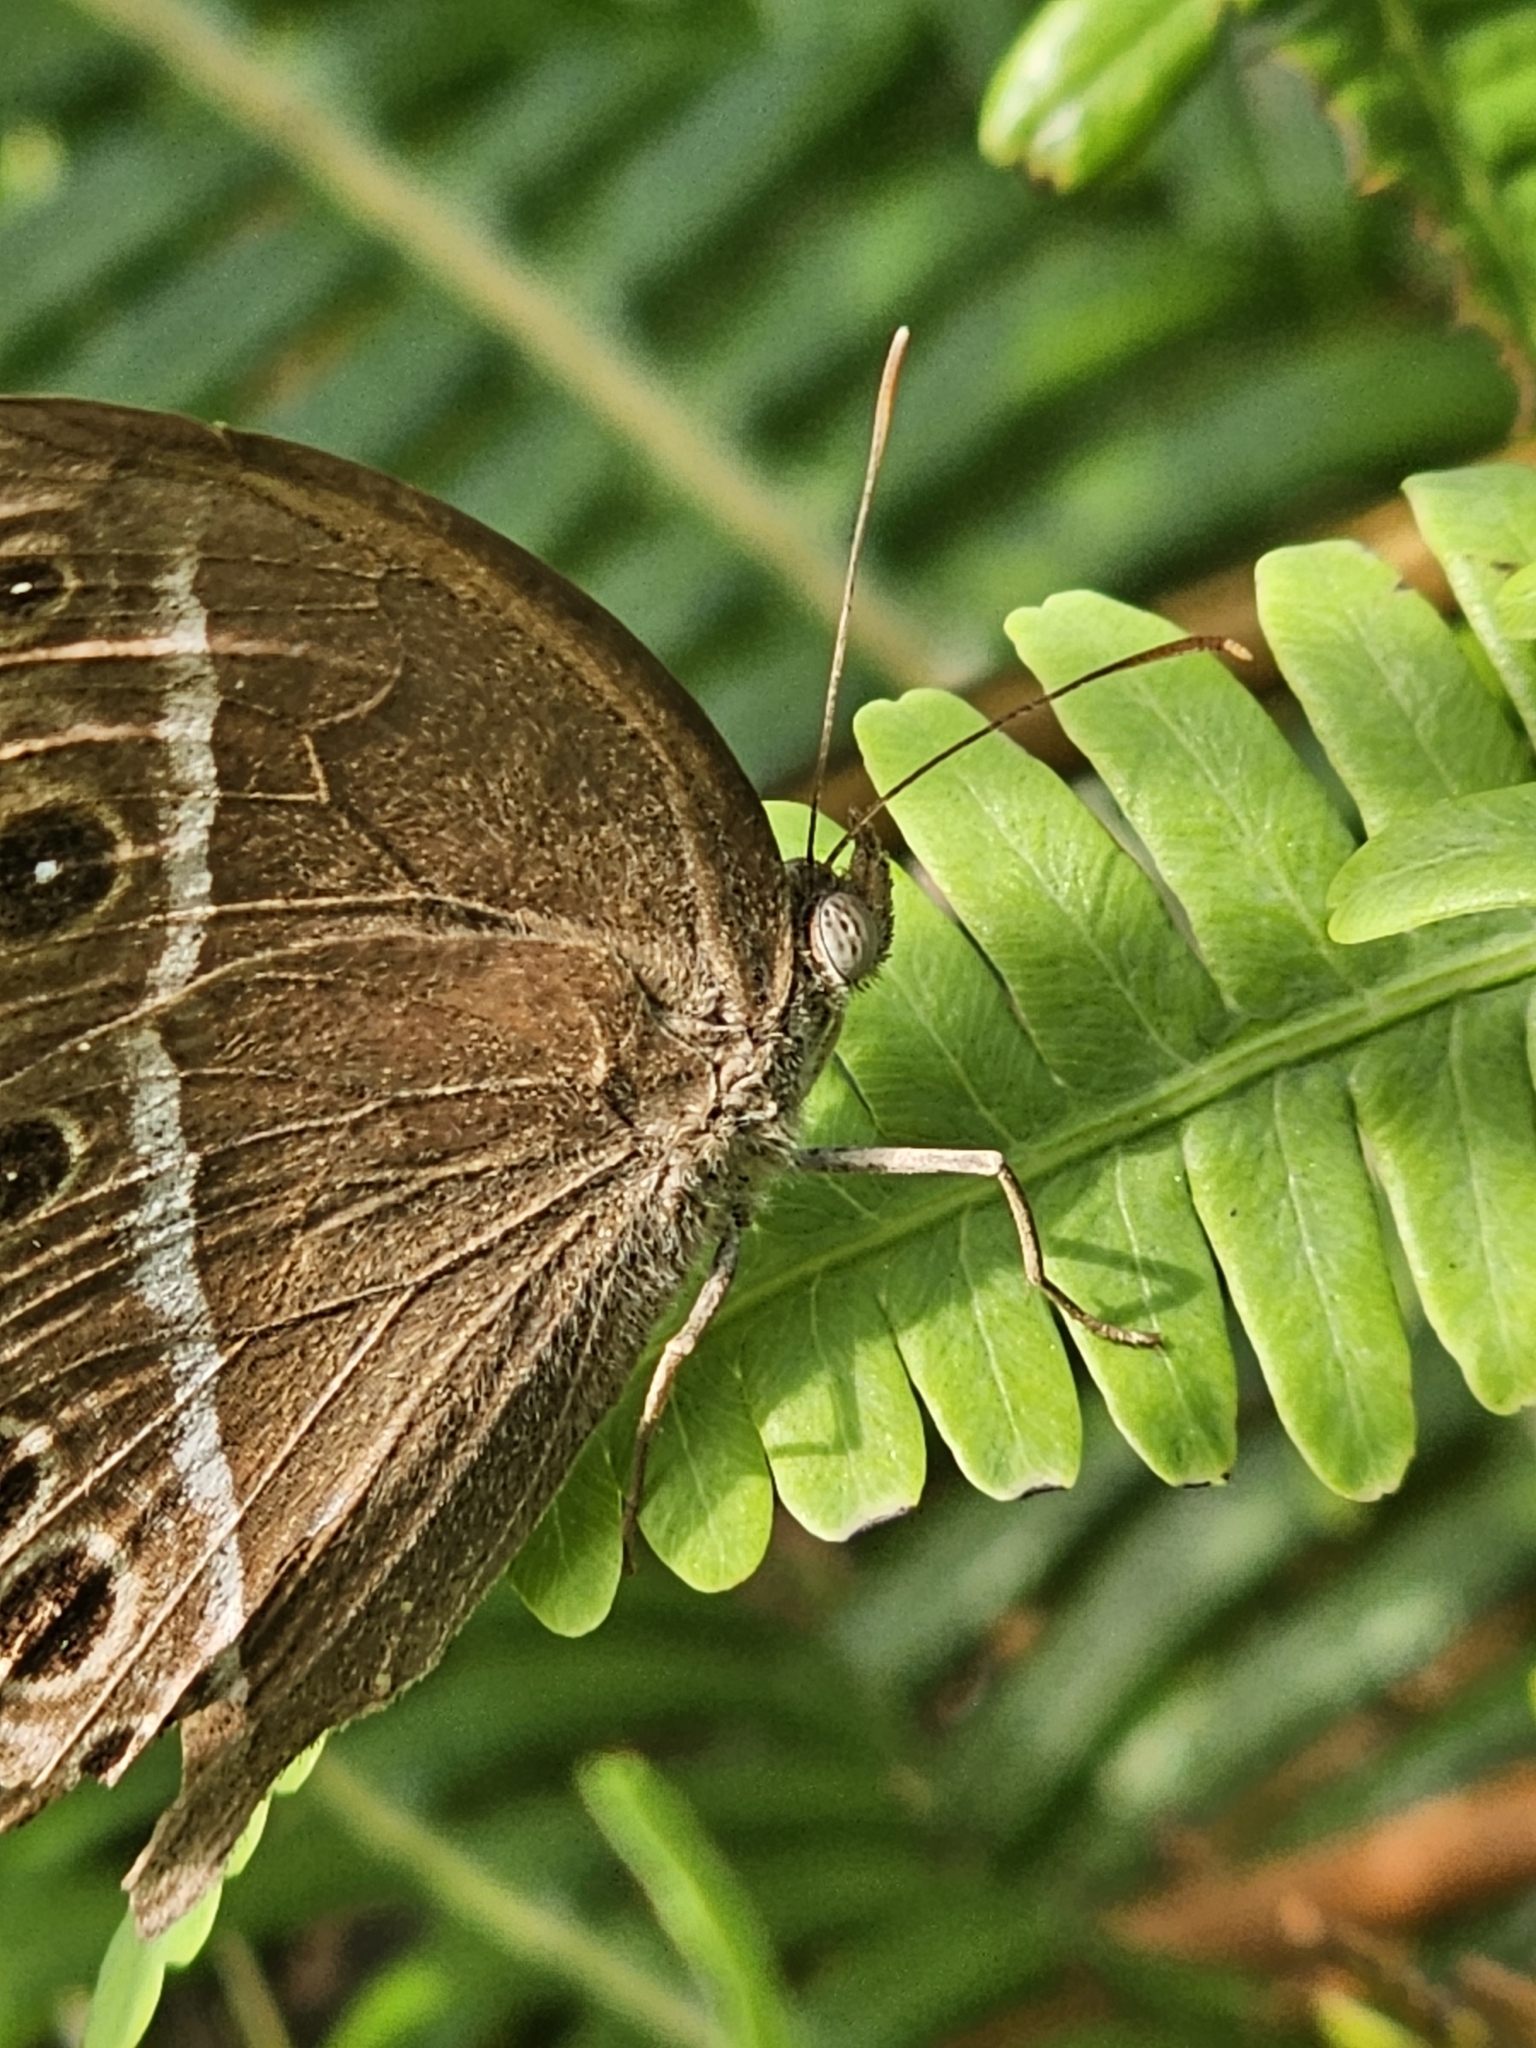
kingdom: Animalia
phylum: Arthropoda
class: Insecta
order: Lepidoptera
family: Nymphalidae
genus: Mycalesis
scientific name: Mycalesis mineus
